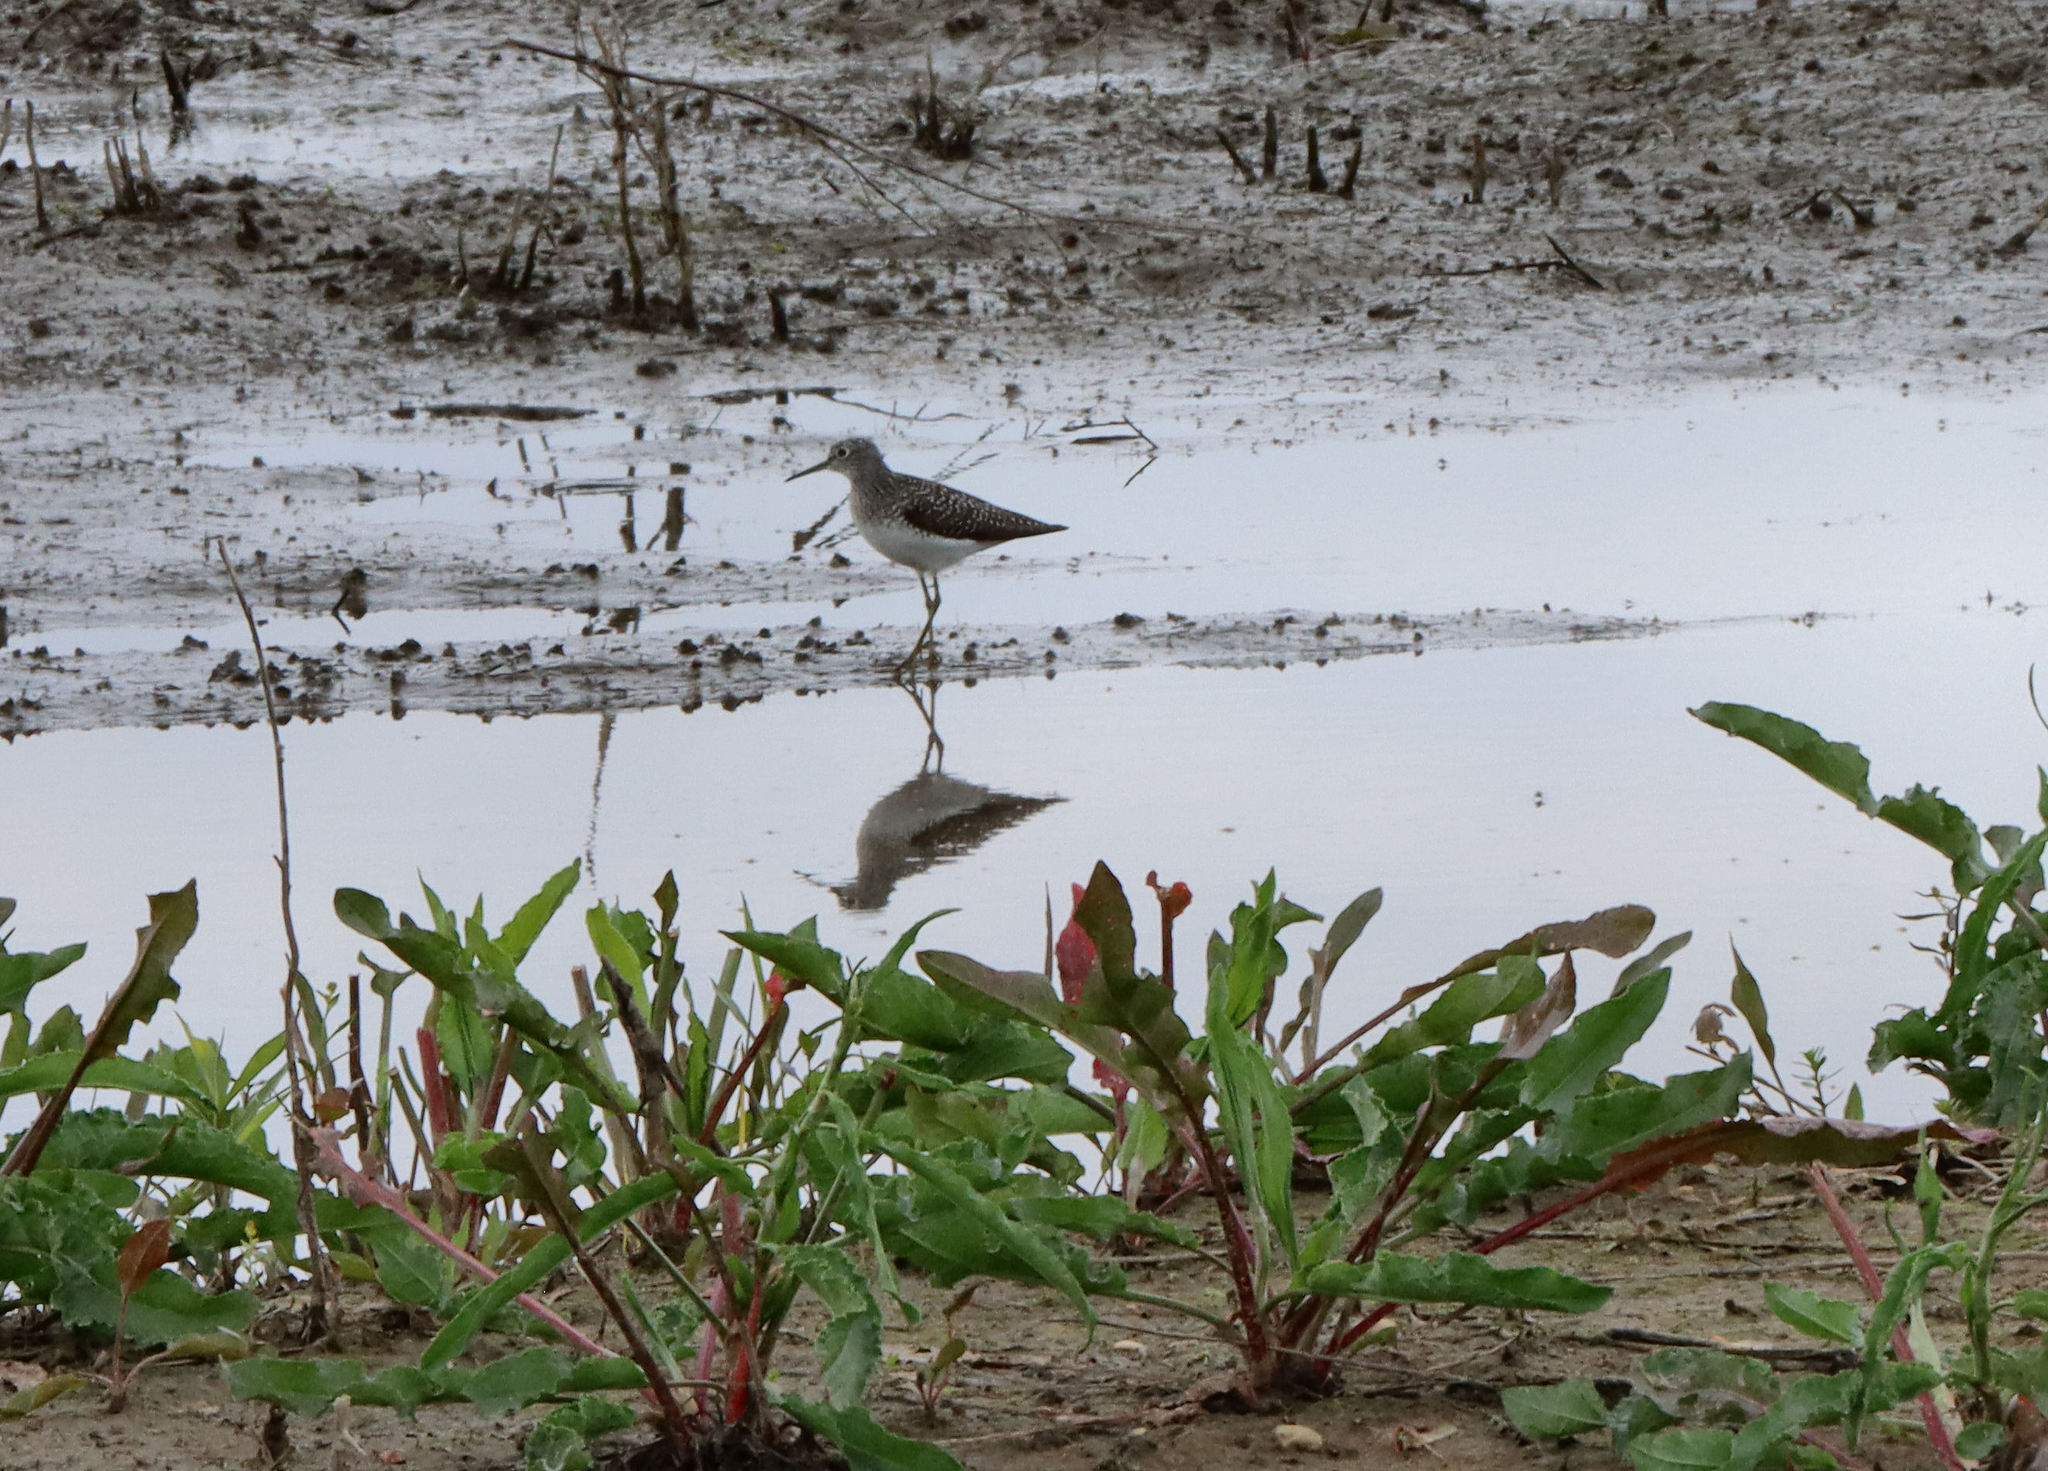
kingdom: Animalia
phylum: Chordata
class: Aves
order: Charadriiformes
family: Scolopacidae
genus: Tringa
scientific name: Tringa solitaria
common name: Solitary sandpiper
